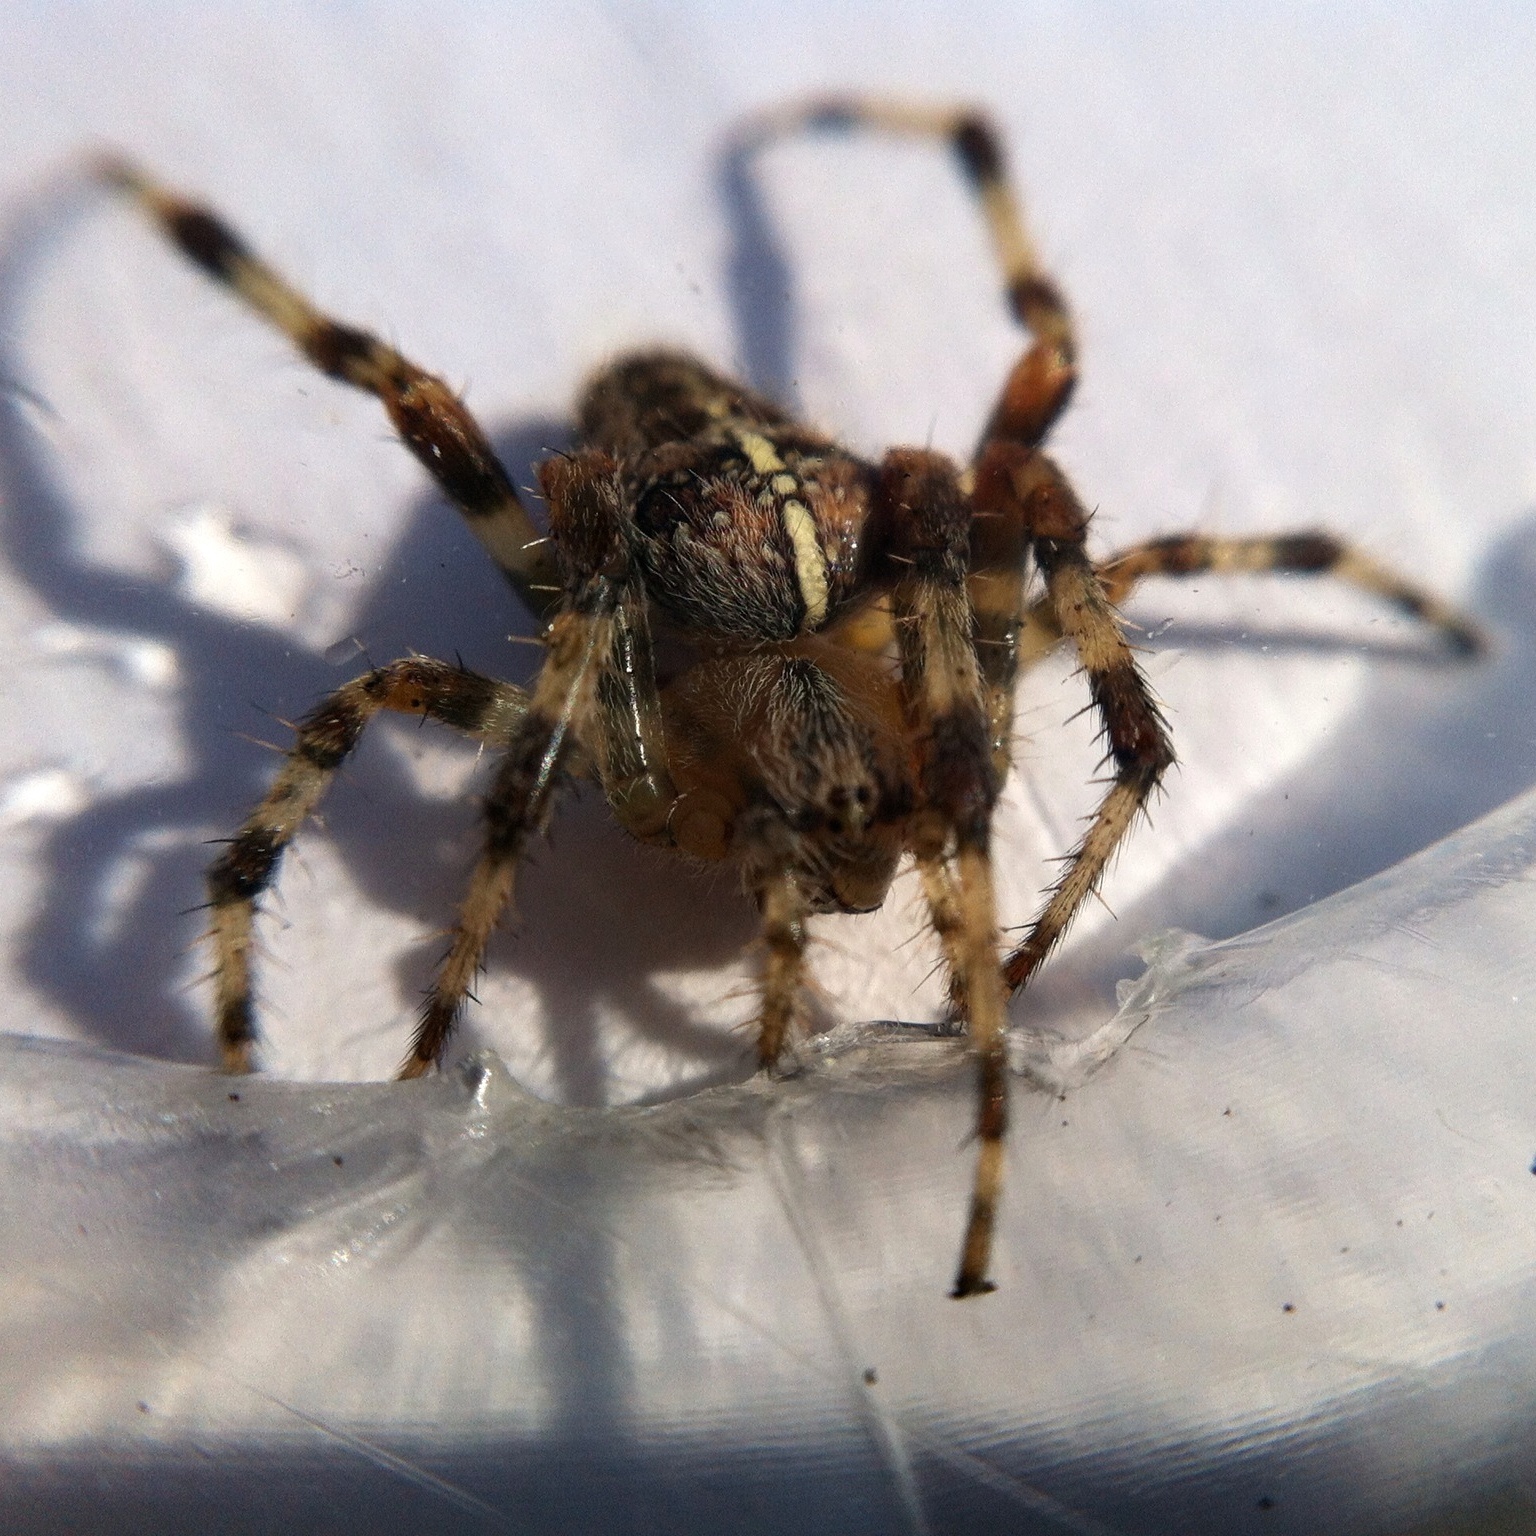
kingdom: Animalia
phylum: Arthropoda
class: Arachnida
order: Araneae
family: Araneidae
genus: Araneus
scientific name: Araneus diadematus
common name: Cross orbweaver
